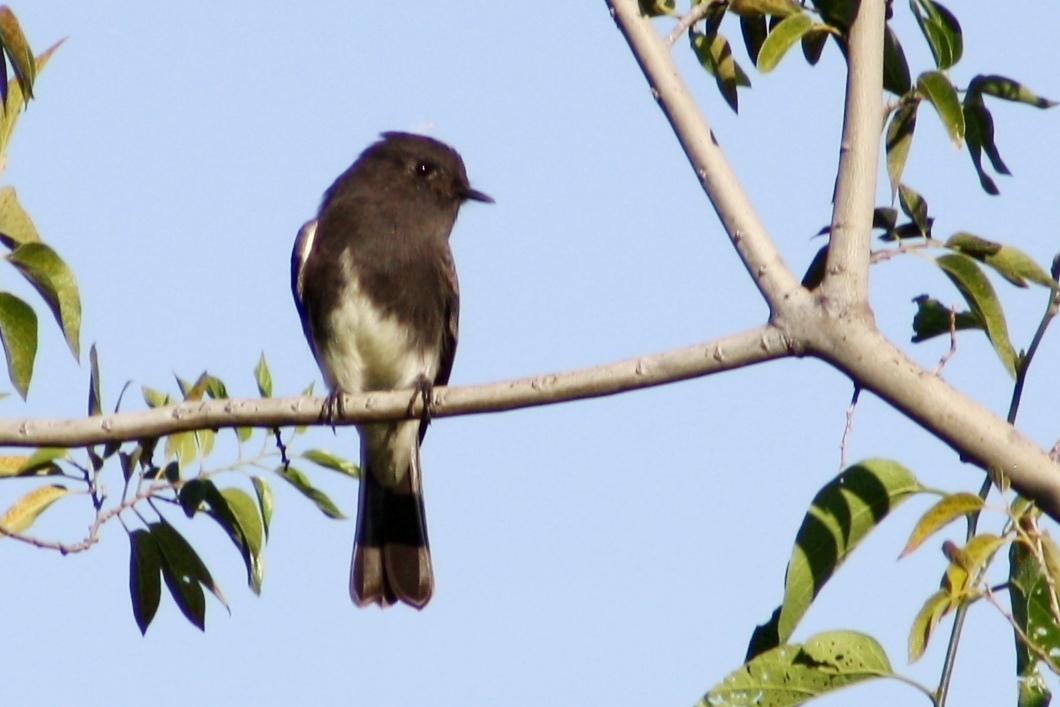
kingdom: Animalia
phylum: Chordata
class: Aves
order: Passeriformes
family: Tyrannidae
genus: Sayornis
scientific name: Sayornis nigricans
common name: Black phoebe
